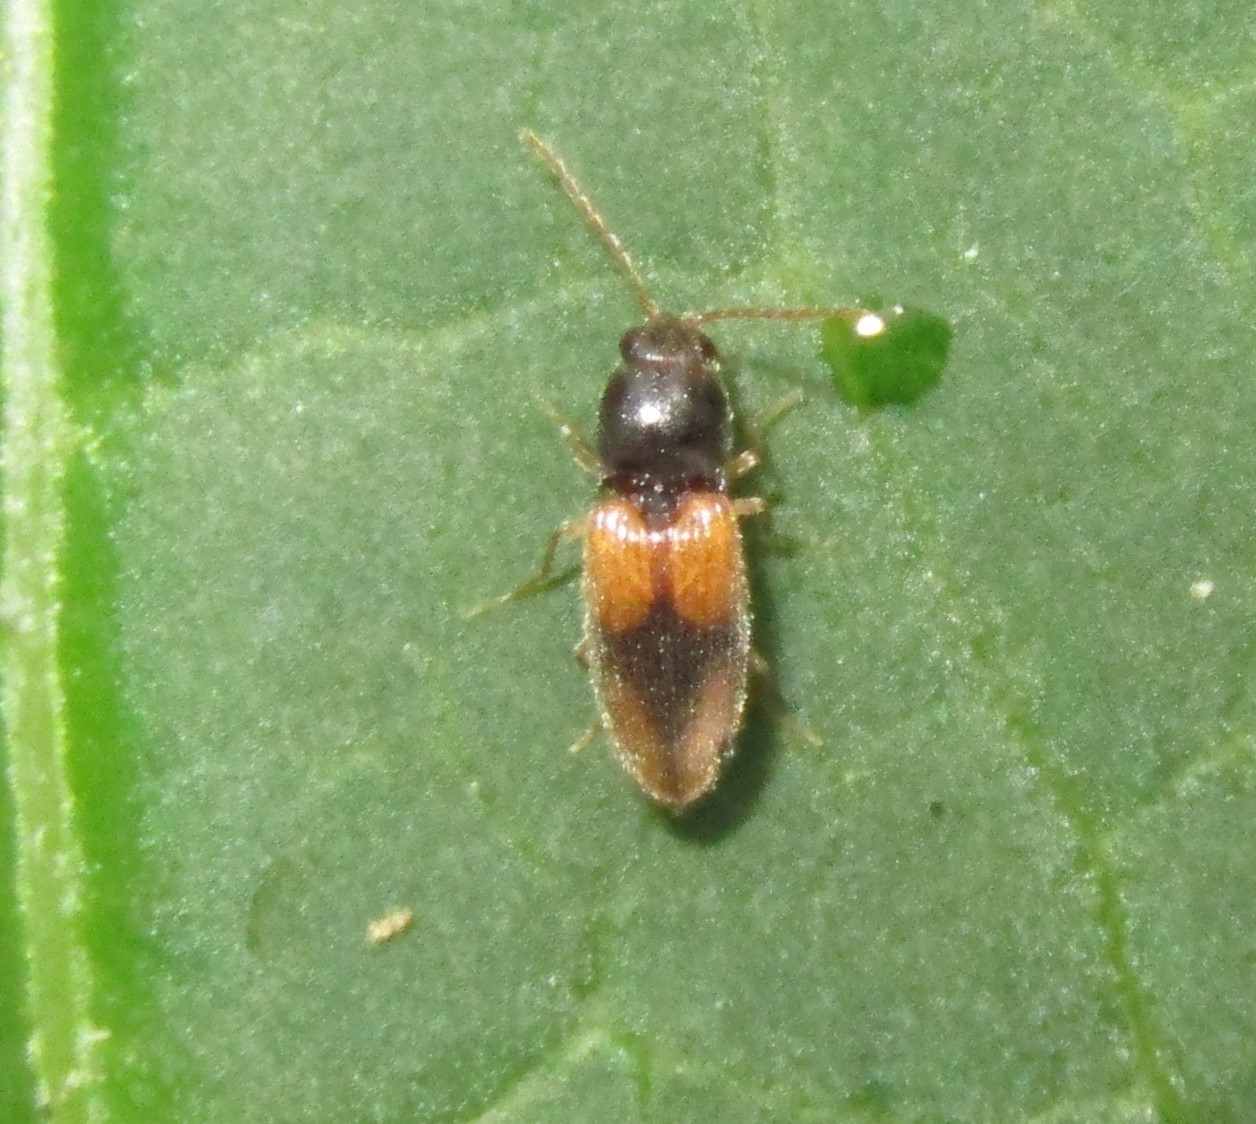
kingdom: Animalia
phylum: Arthropoda
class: Insecta
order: Coleoptera
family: Elateridae
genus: Horistonotus
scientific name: Horistonotus curiatus
